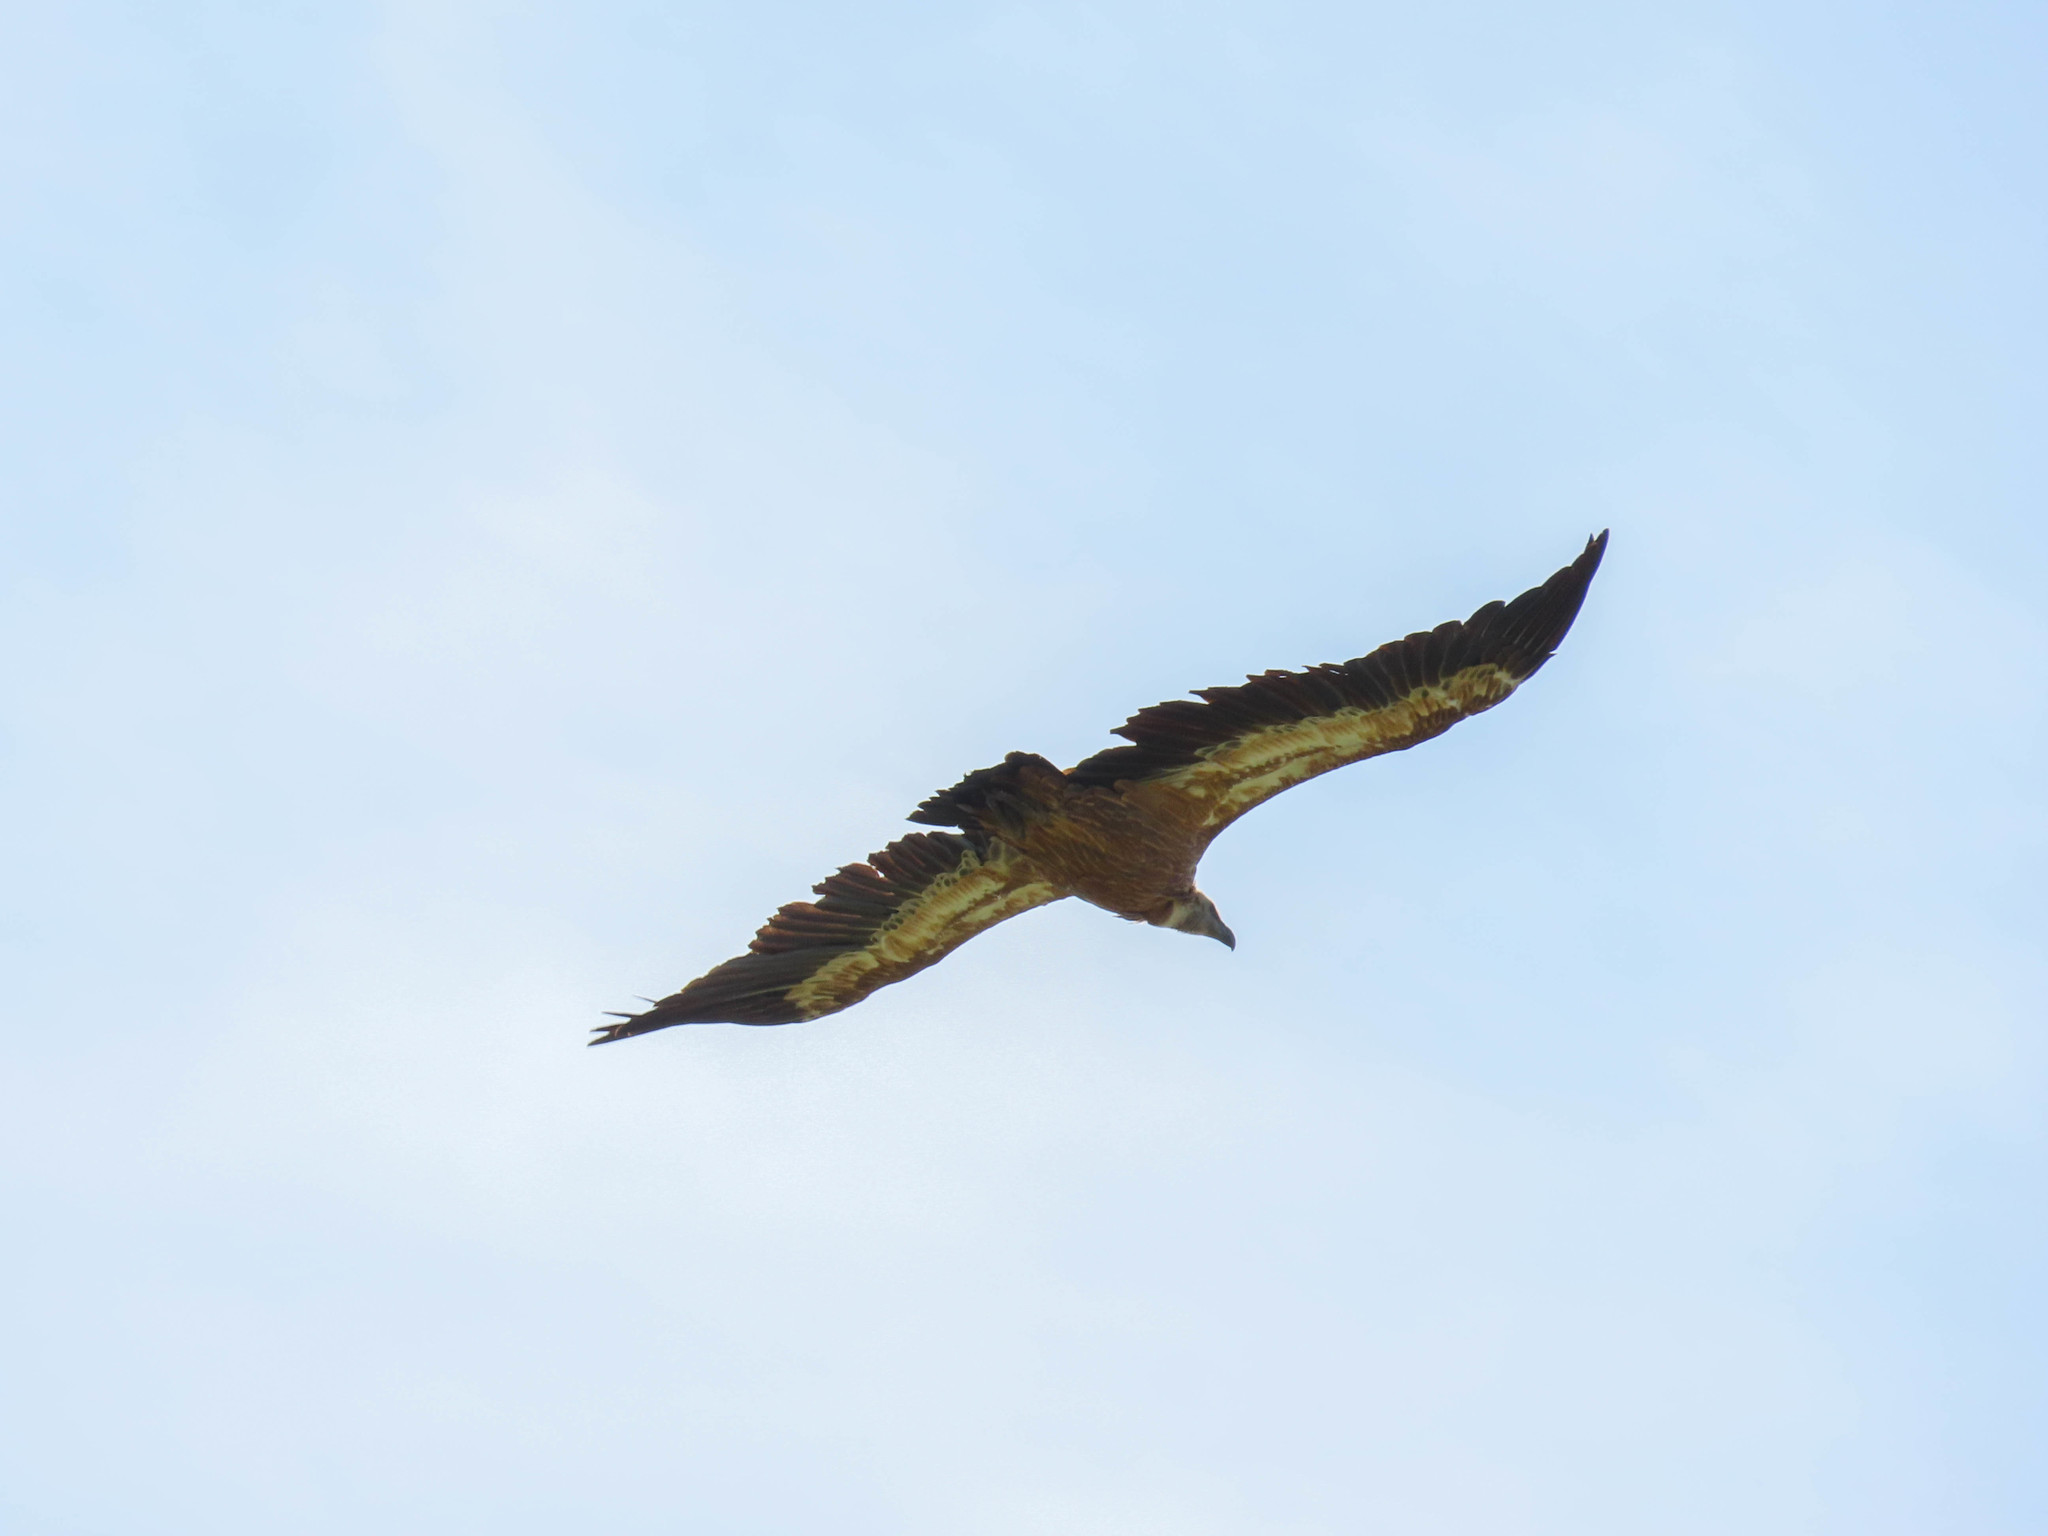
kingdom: Animalia
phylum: Chordata
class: Aves
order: Accipitriformes
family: Accipitridae
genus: Gyps
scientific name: Gyps fulvus
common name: Griffon vulture
